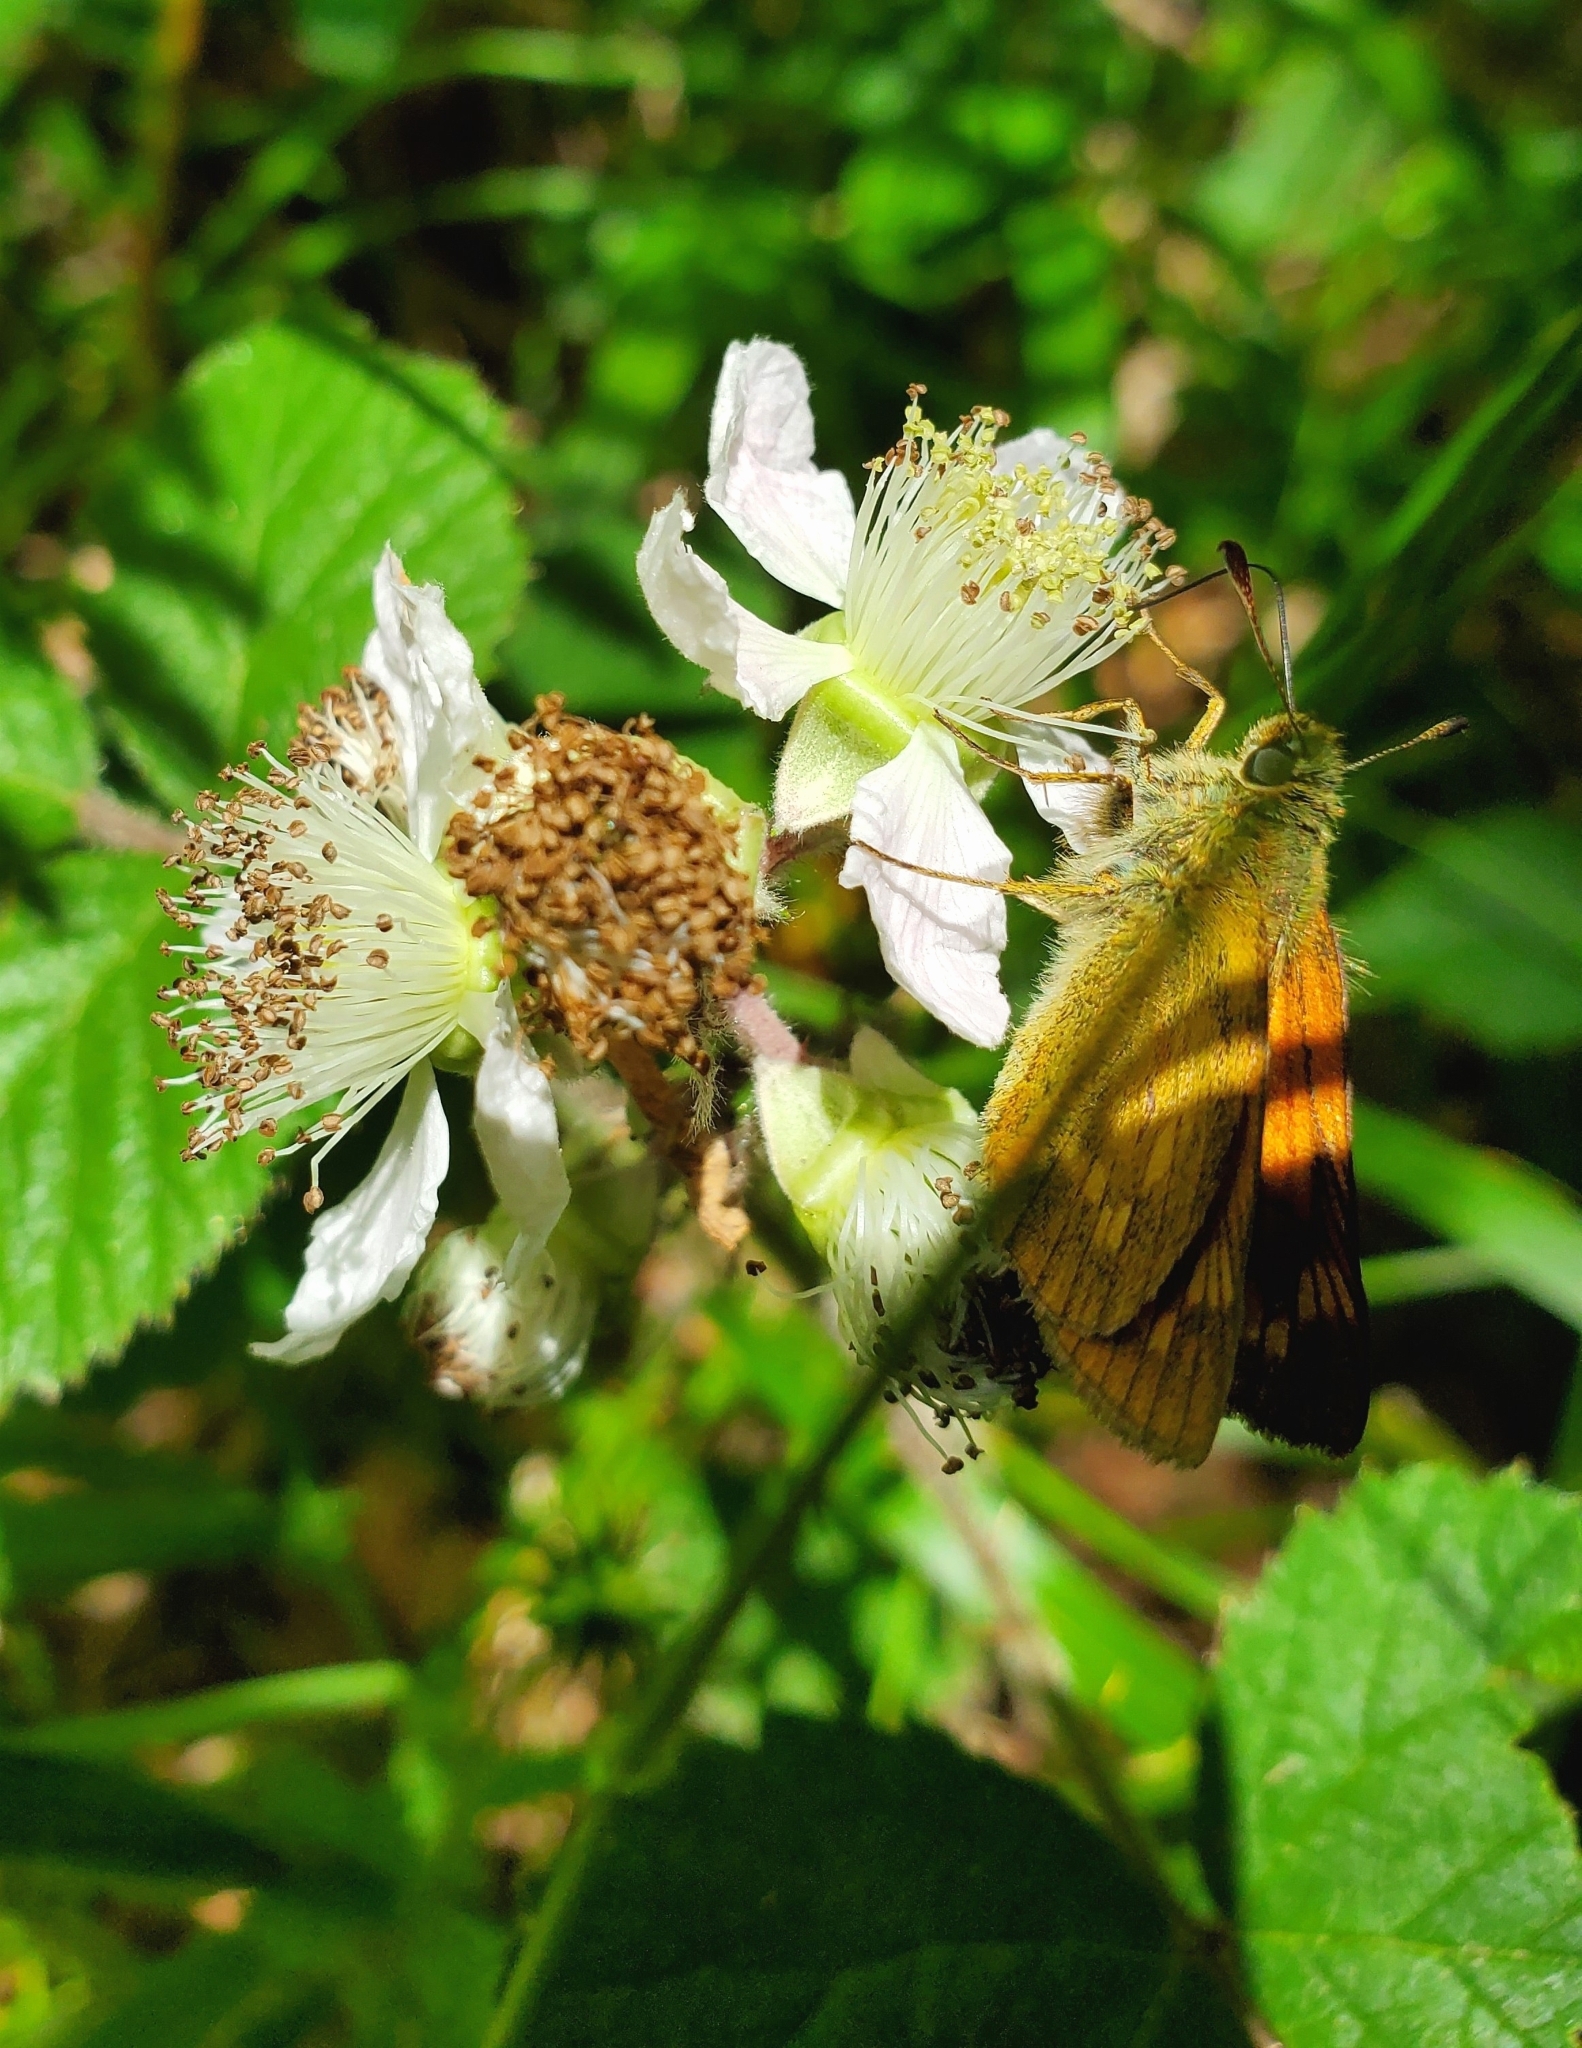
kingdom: Animalia
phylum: Arthropoda
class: Insecta
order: Lepidoptera
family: Hesperiidae
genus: Ochlodes
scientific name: Ochlodes venata
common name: Large skipper
